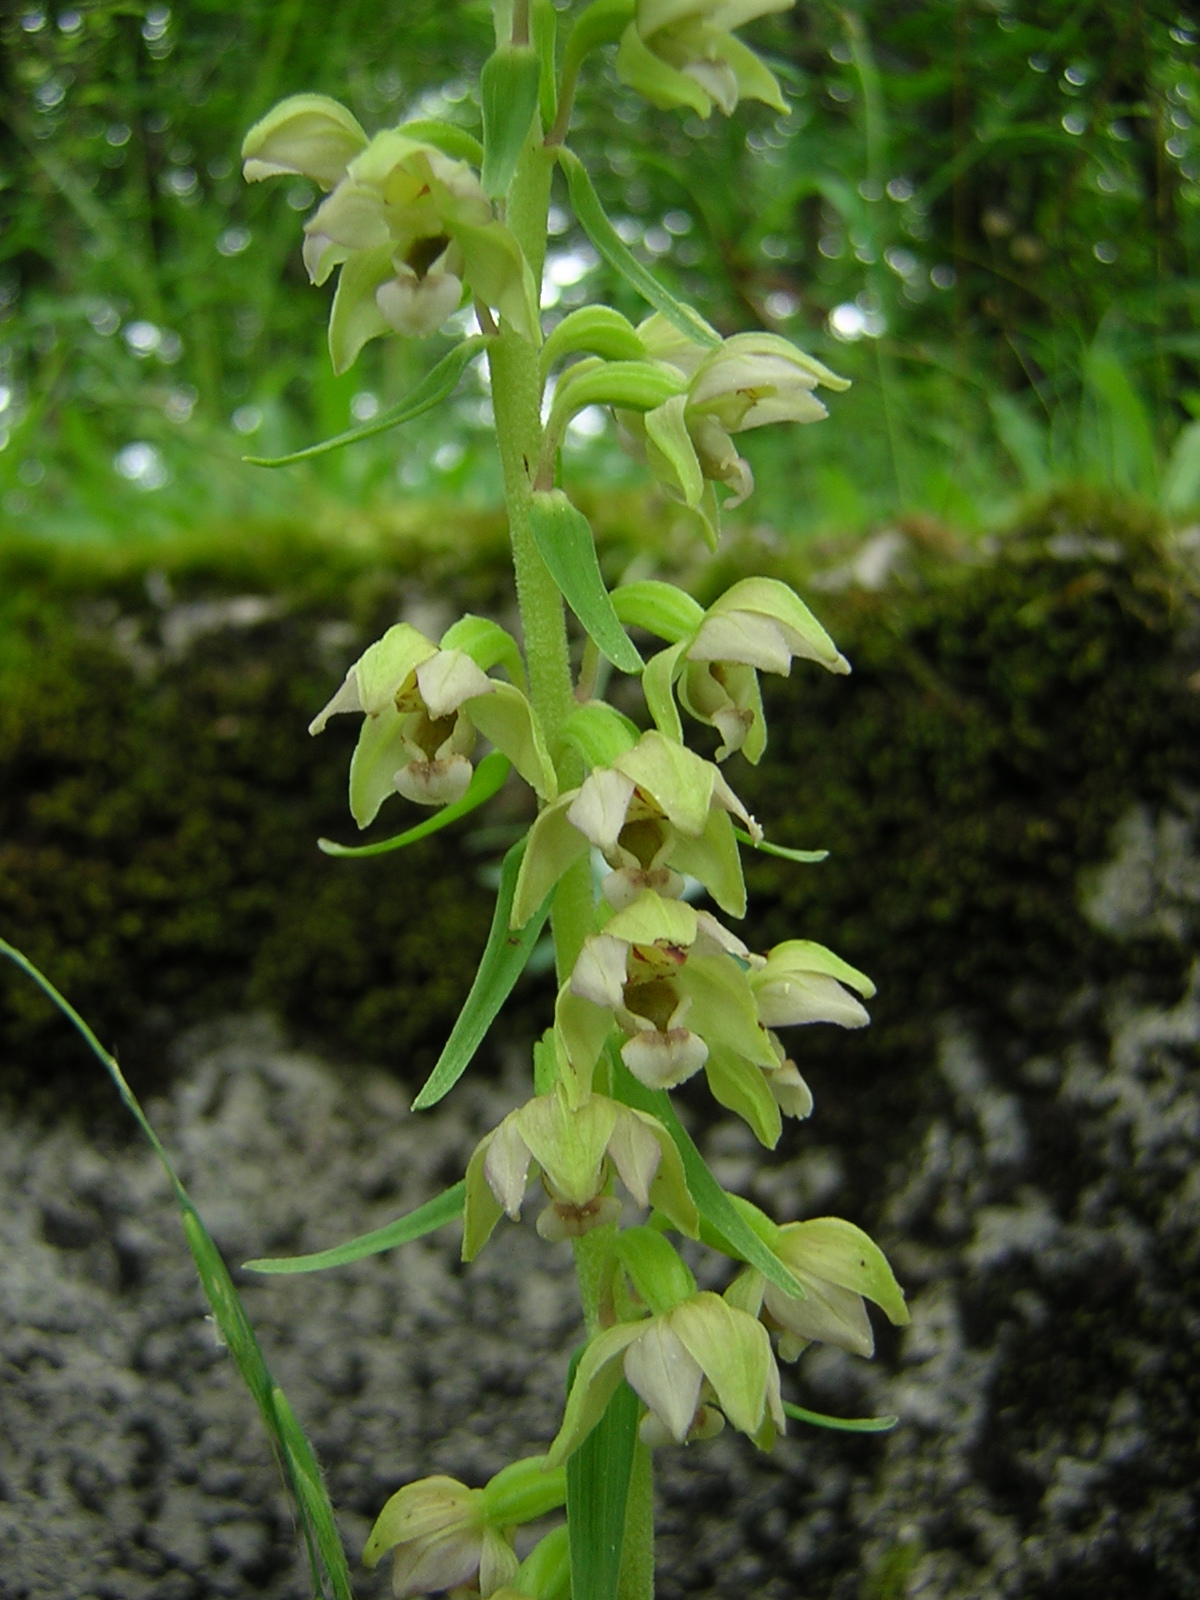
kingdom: Plantae
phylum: Tracheophyta
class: Liliopsida
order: Asparagales
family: Orchidaceae
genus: Epipactis
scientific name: Epipactis helleborine
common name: Broad-leaved helleborine
